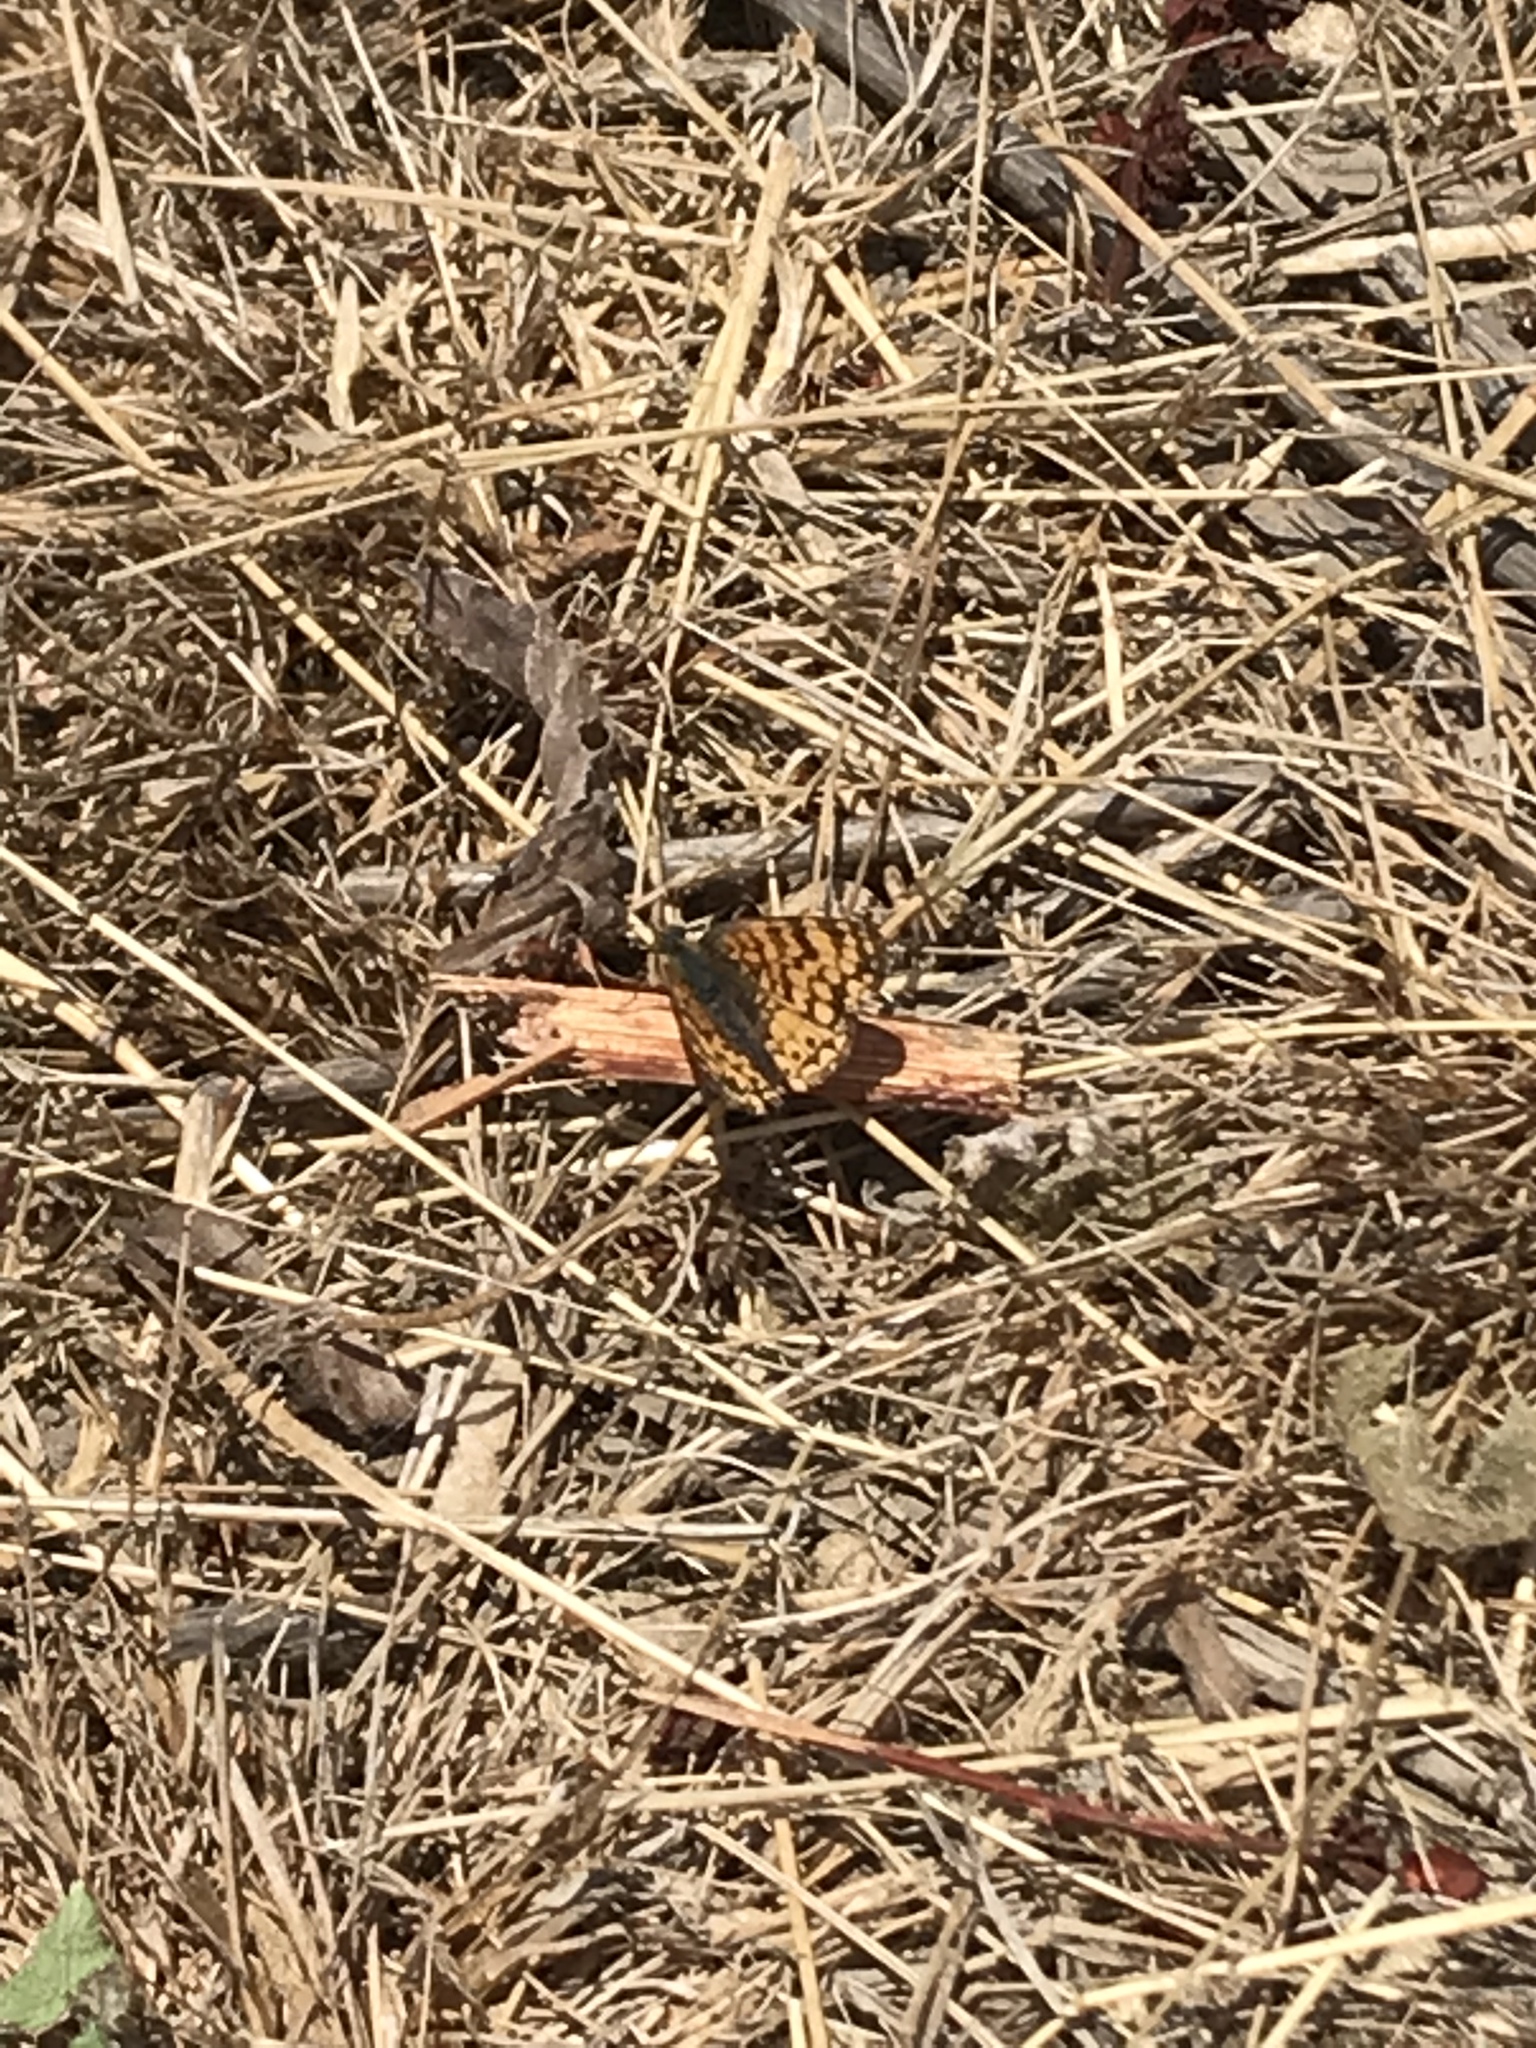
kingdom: Animalia
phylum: Arthropoda
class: Insecta
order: Lepidoptera
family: Nymphalidae
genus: Eresia
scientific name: Eresia aveyrona
